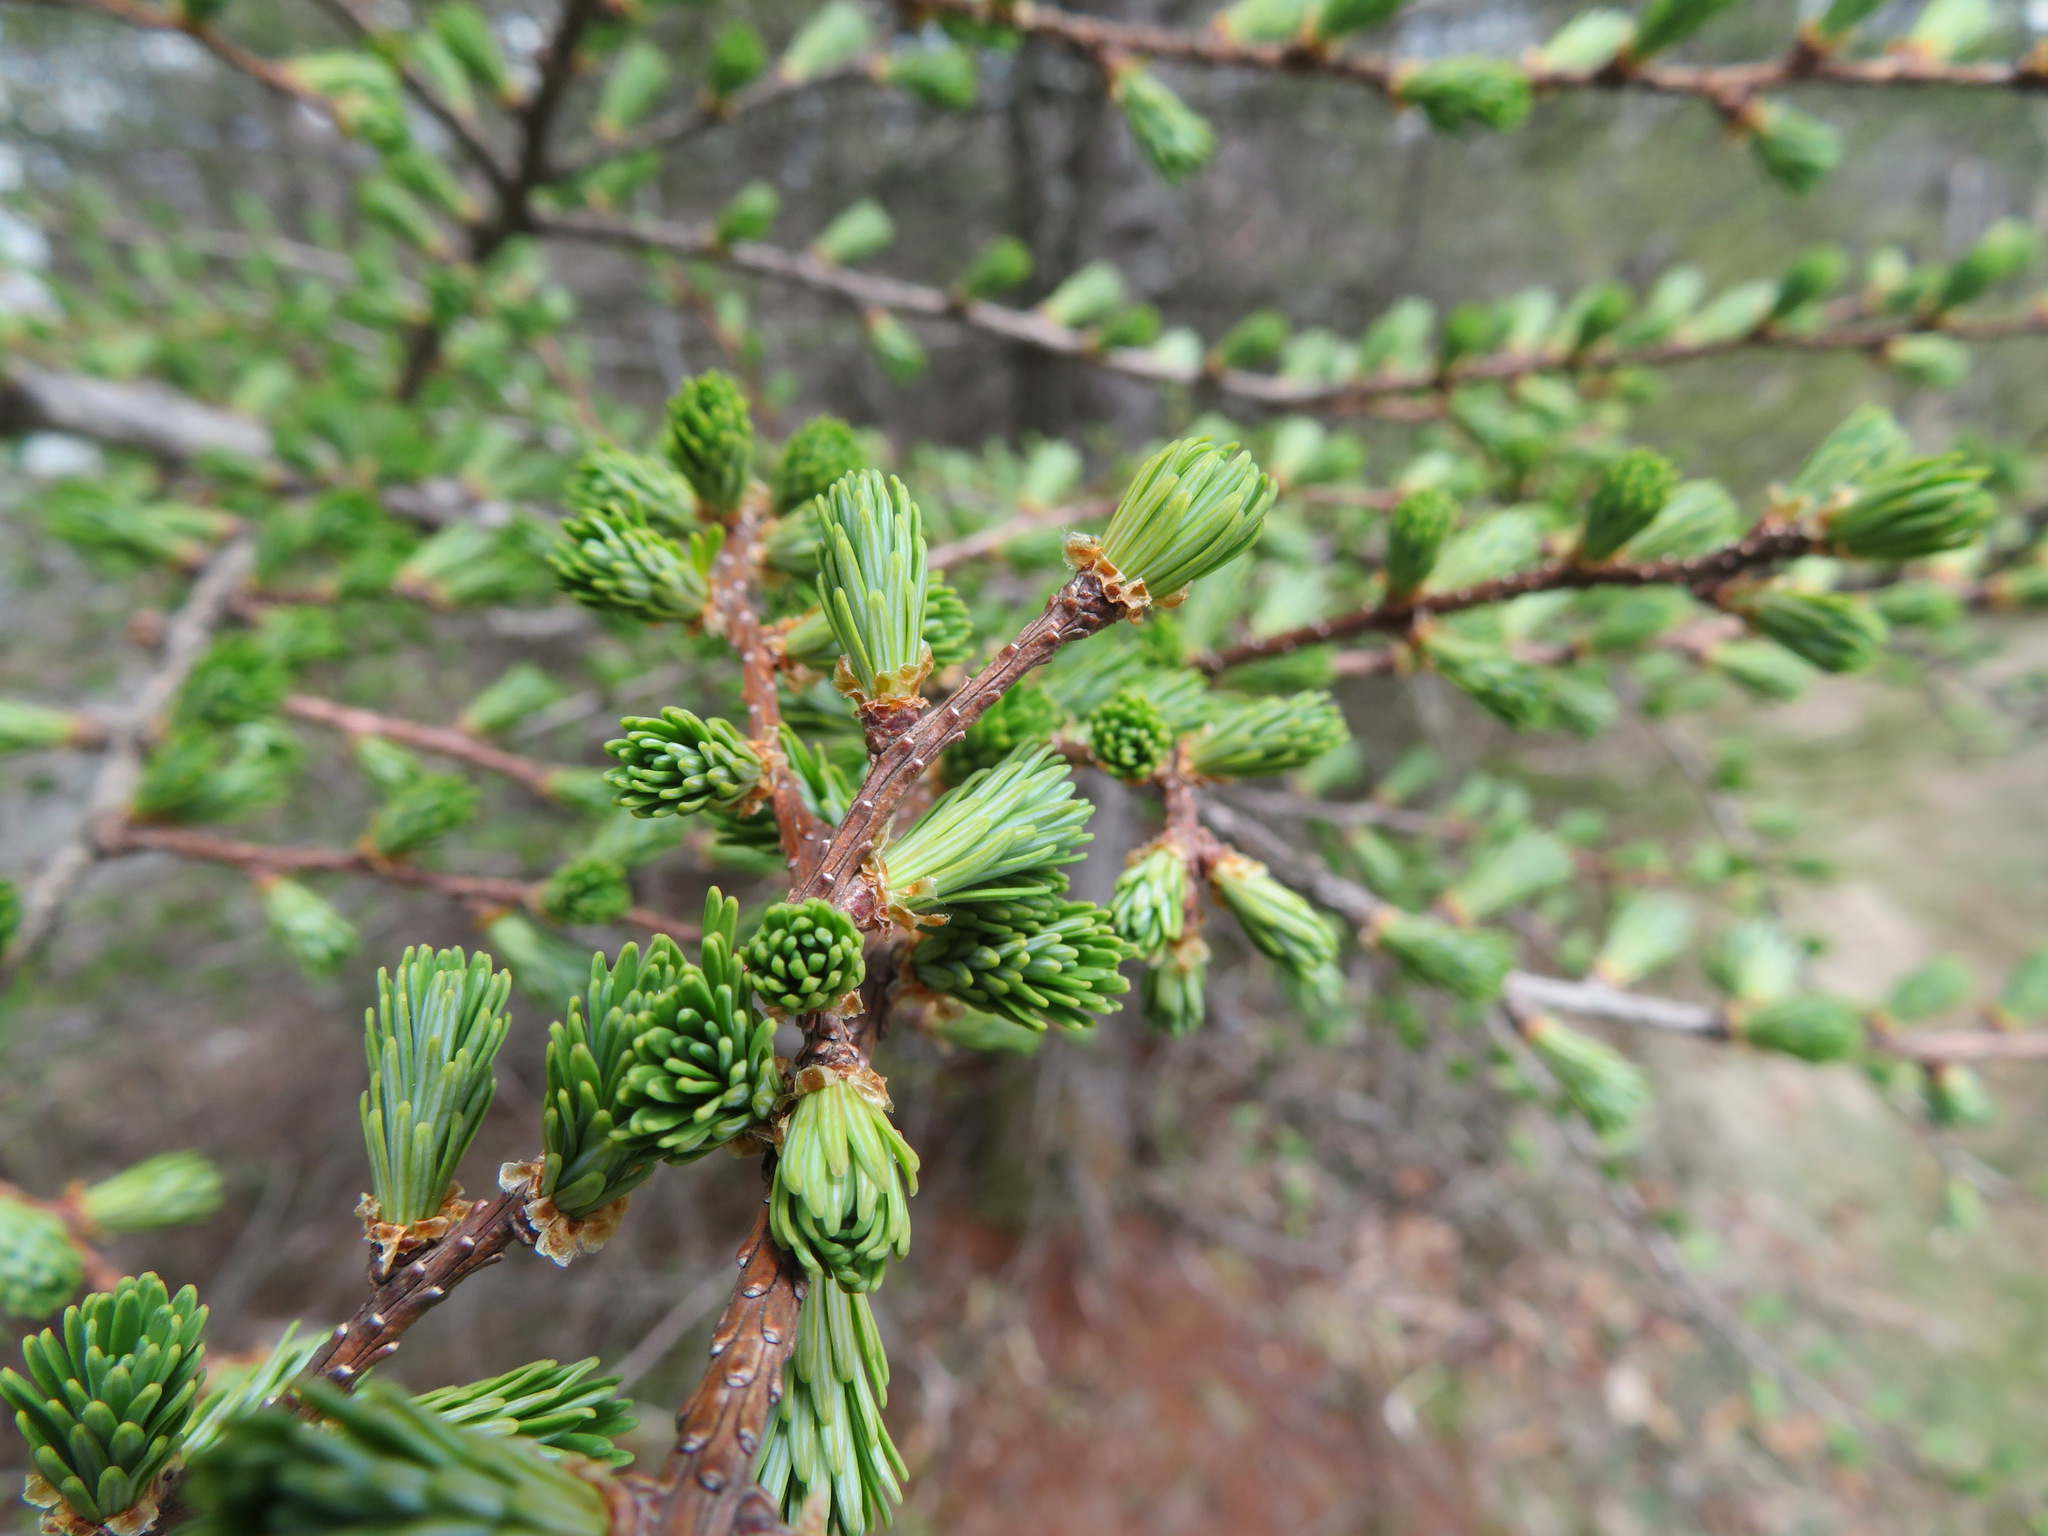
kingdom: Plantae
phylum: Tracheophyta
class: Pinopsida
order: Pinales
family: Pinaceae
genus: Larix
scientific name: Larix kaempferi
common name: Japanese larch
